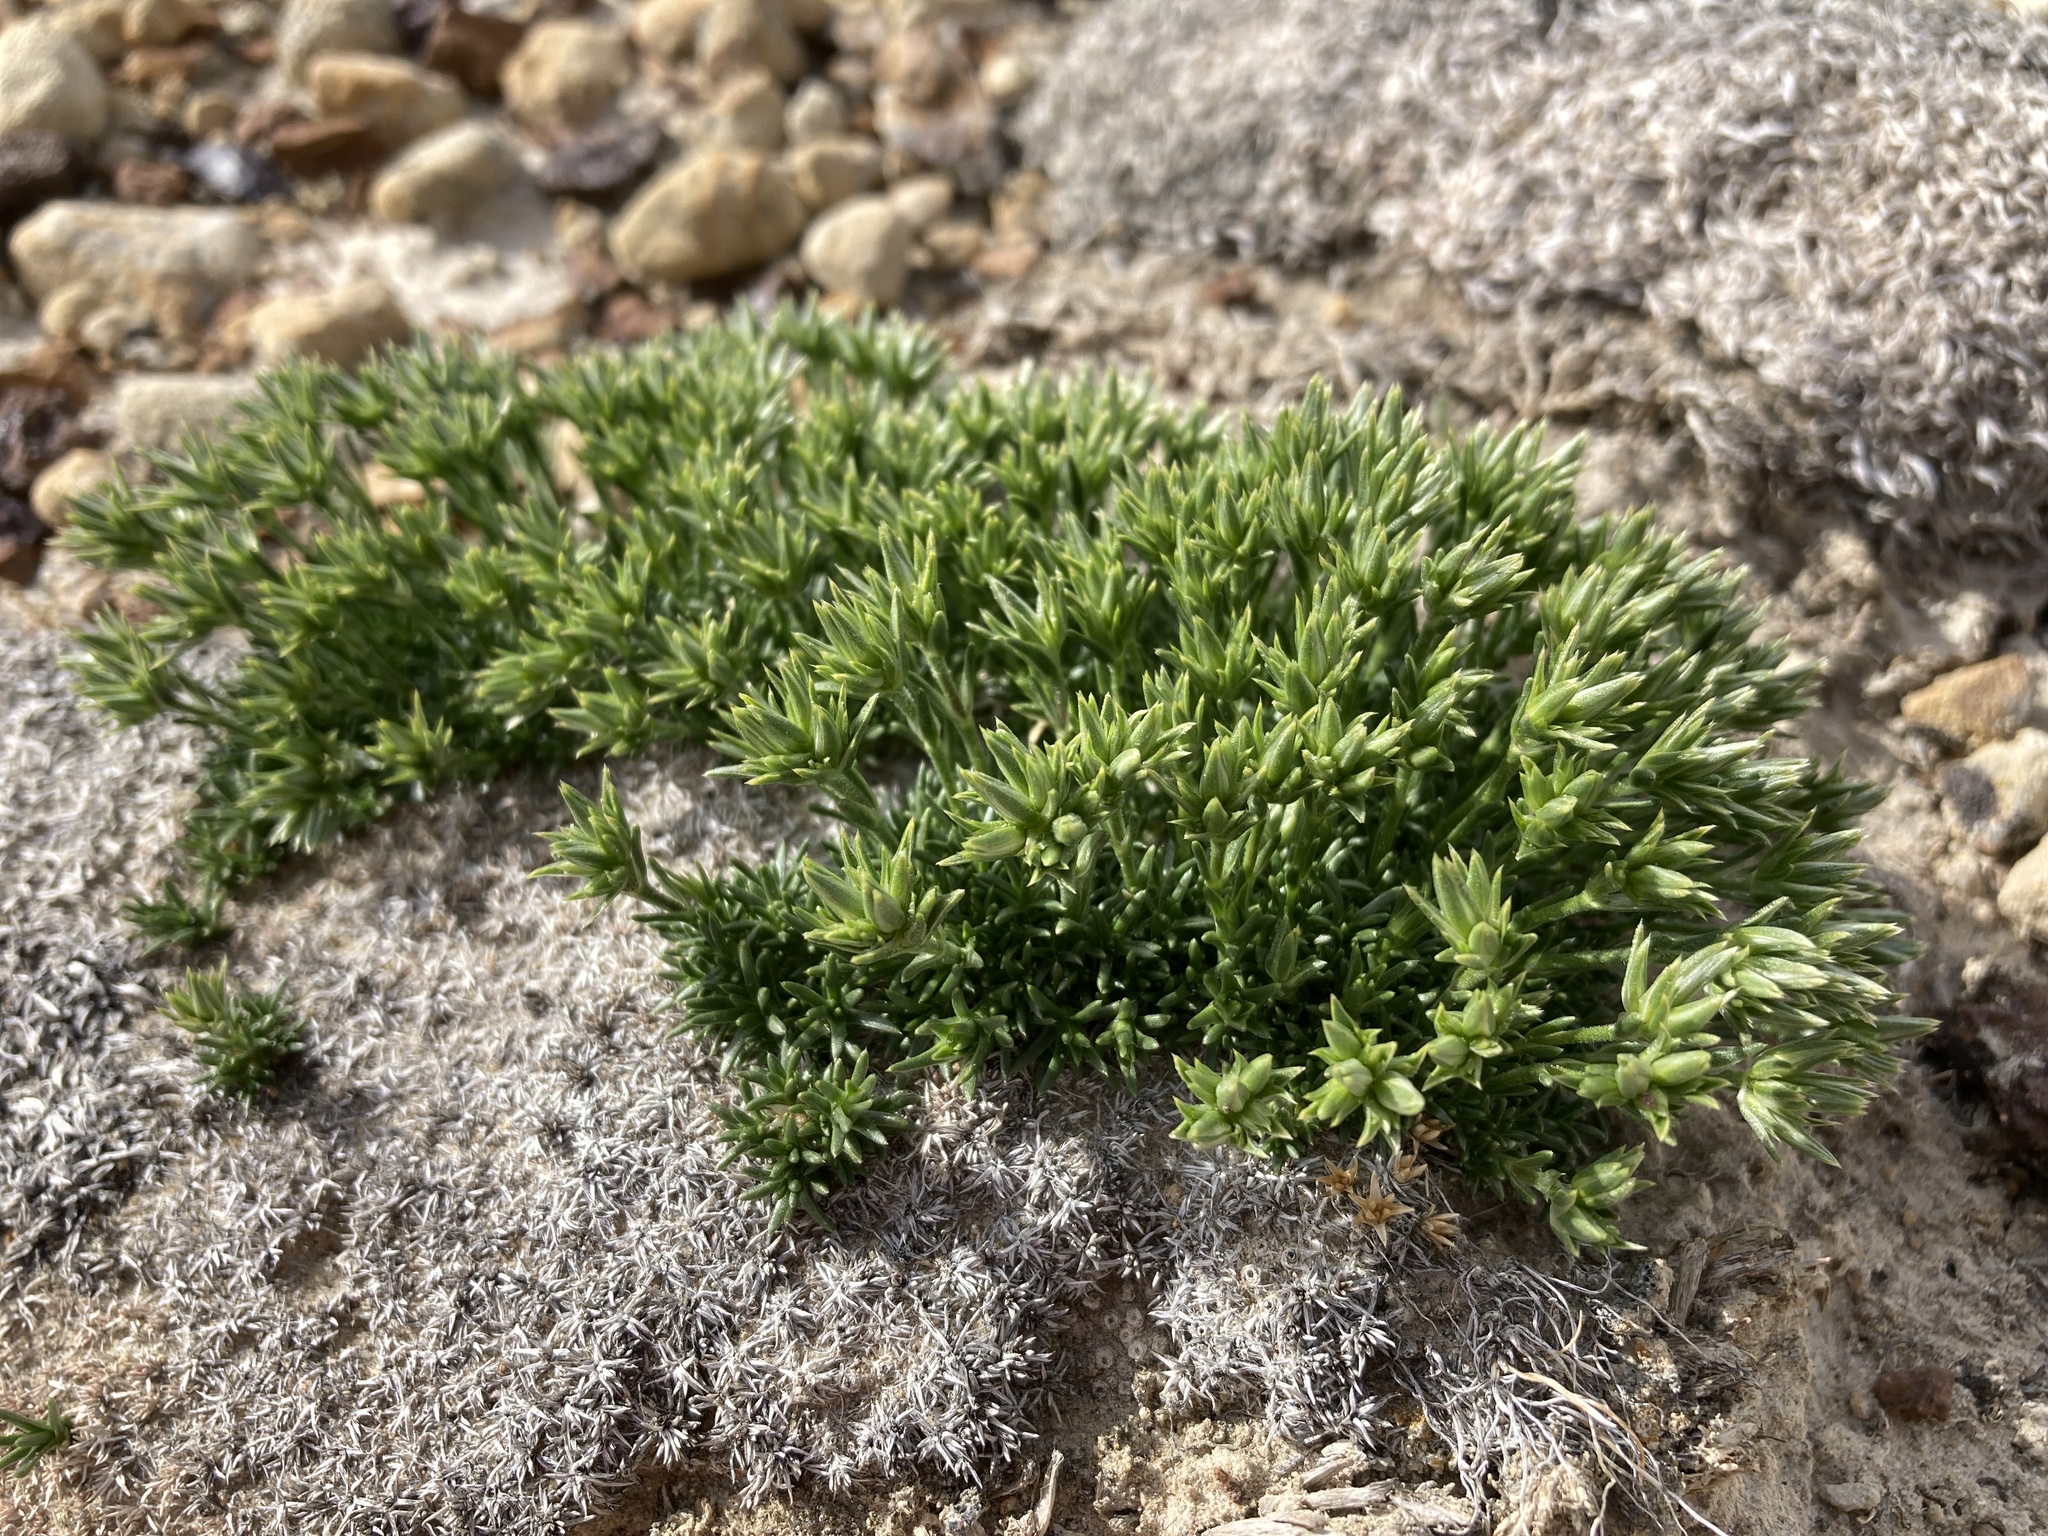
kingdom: Plantae
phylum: Tracheophyta
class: Magnoliopsida
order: Caryophyllales
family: Caryophyllaceae
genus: Eremogone
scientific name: Eremogone hookeri
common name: Hooker's sandwort
